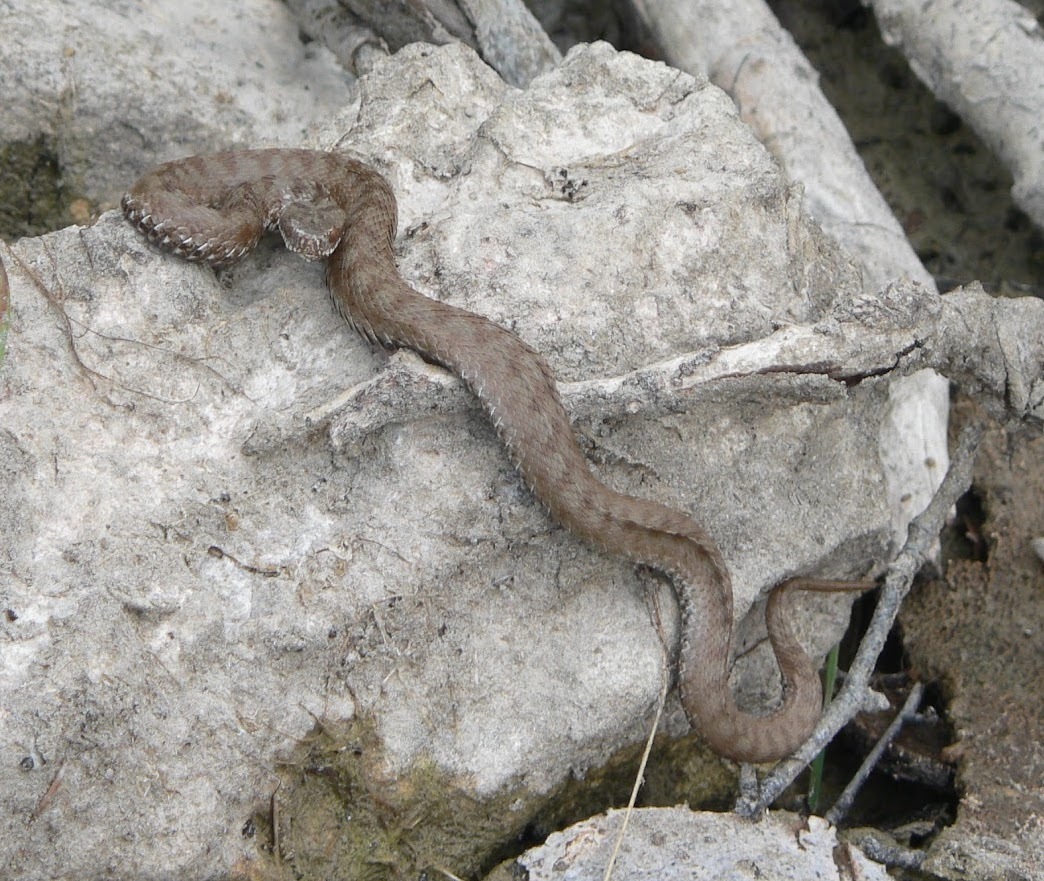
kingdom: Animalia
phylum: Chordata
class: Squamata
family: Viperidae
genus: Vipera
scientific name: Vipera berus
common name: Adder
